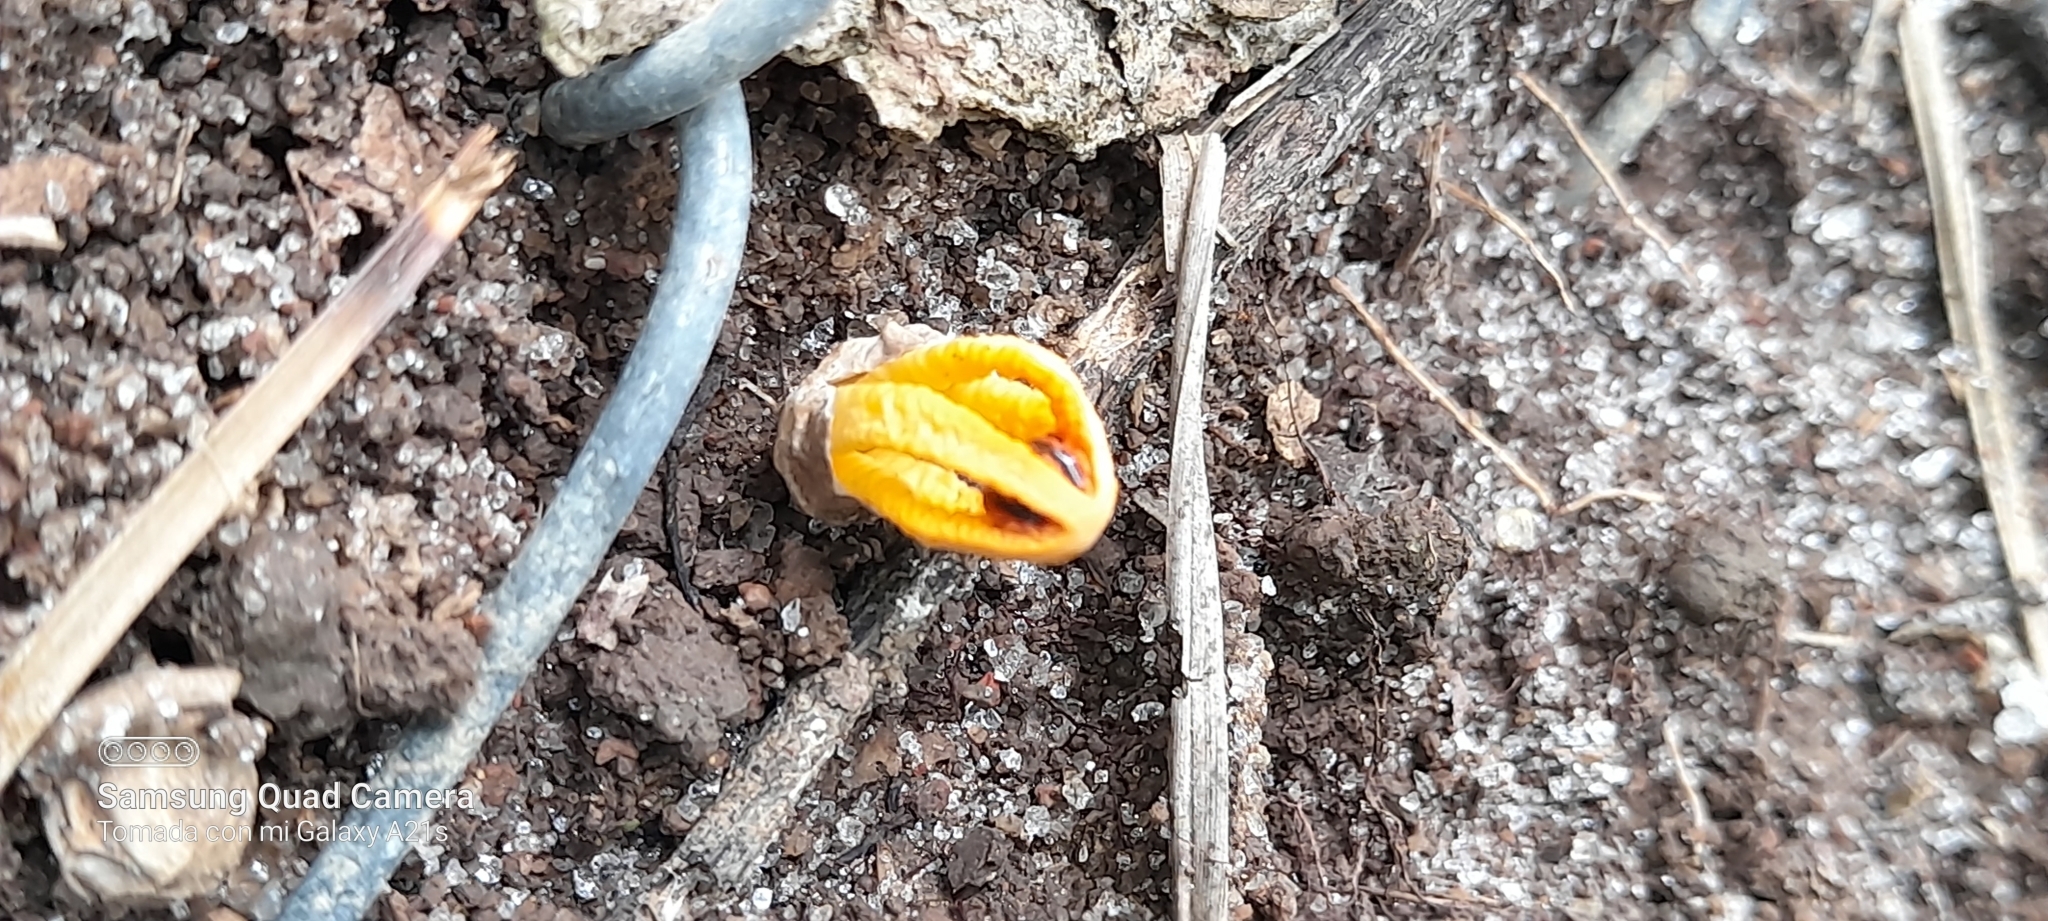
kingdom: Fungi
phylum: Basidiomycota
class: Agaricomycetes
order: Phallales
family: Phallaceae
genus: Laternea
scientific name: Laternea dringii
